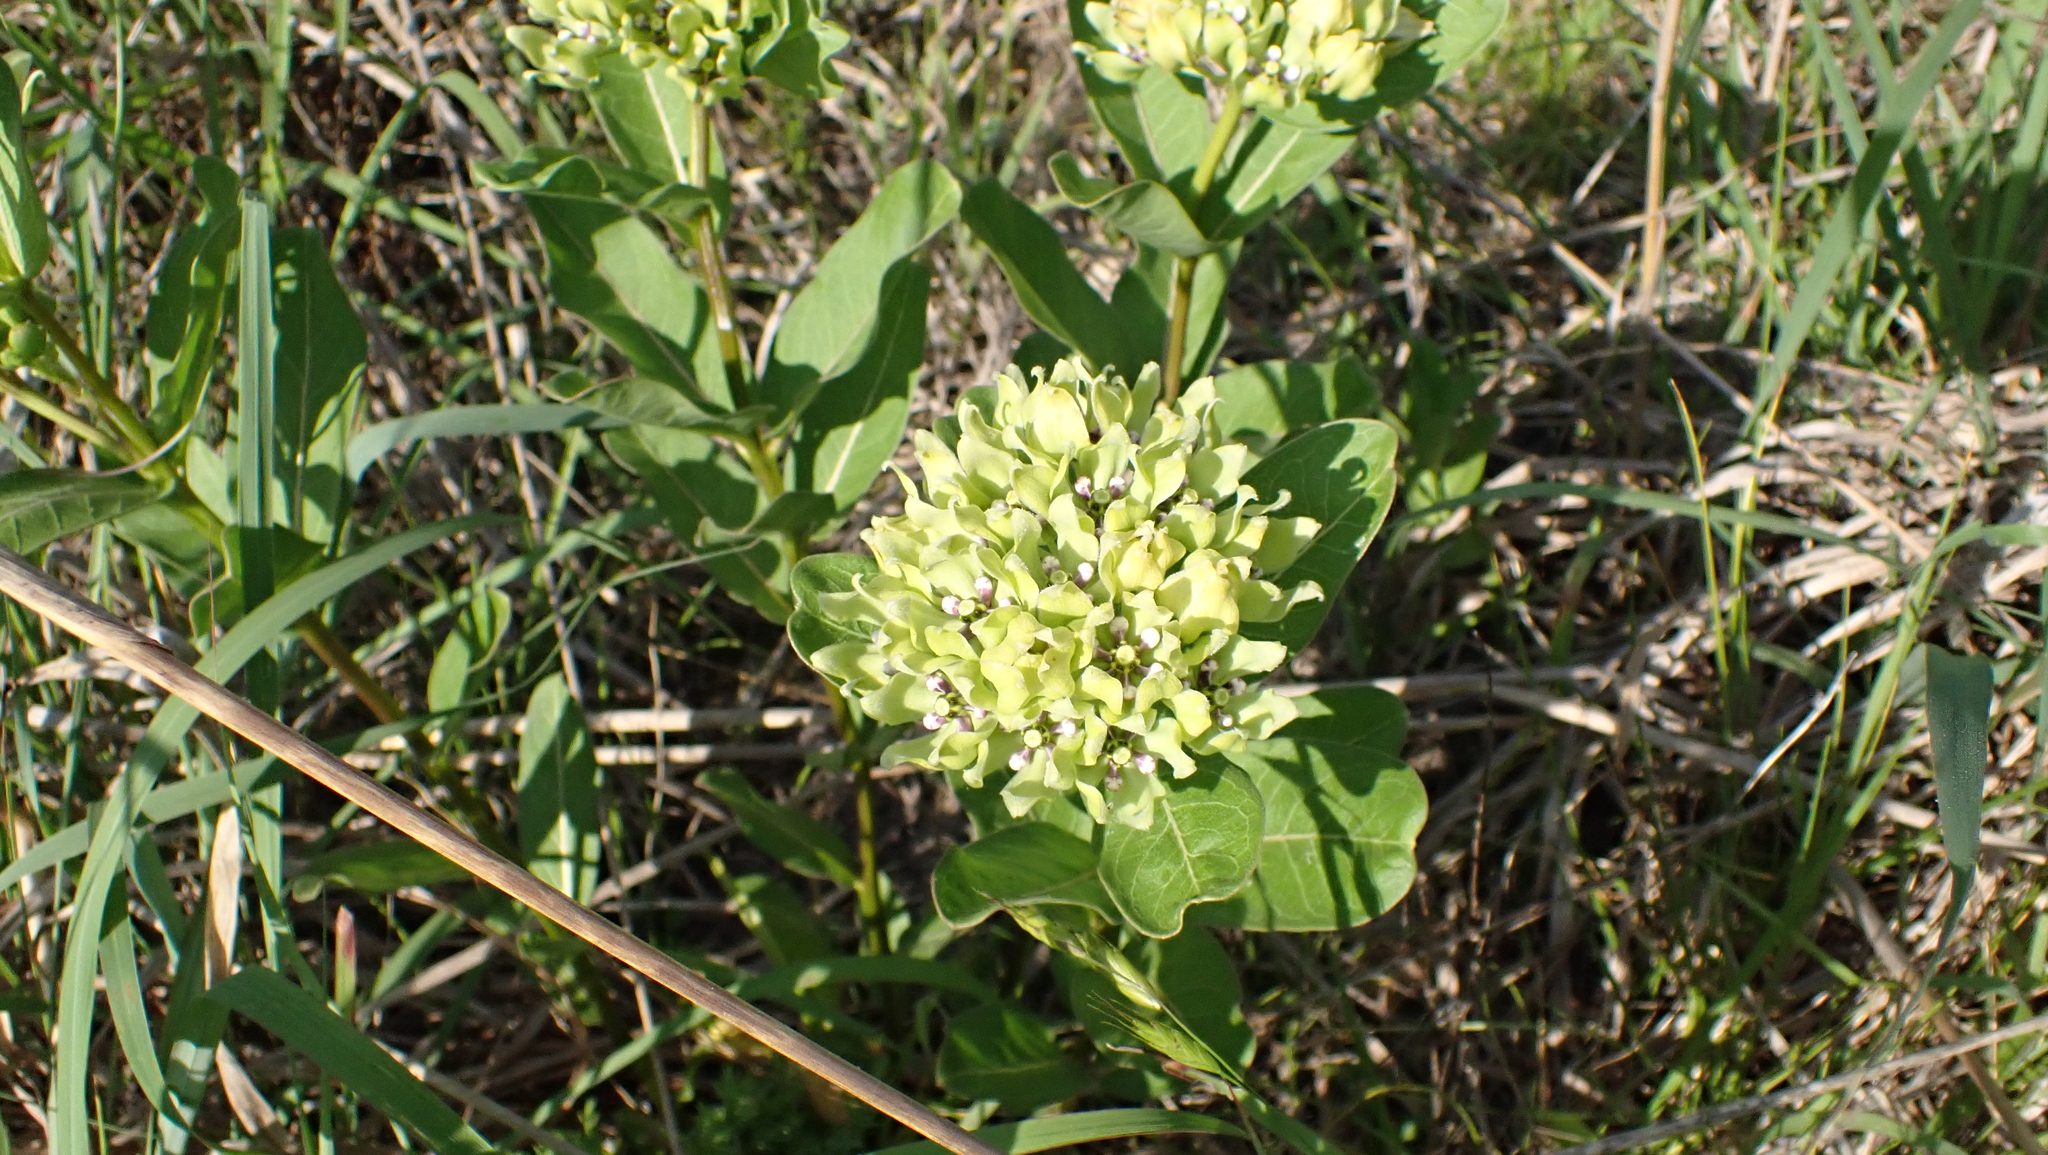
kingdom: Plantae
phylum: Tracheophyta
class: Magnoliopsida
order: Gentianales
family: Apocynaceae
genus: Asclepias
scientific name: Asclepias viridis
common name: Antelope-horns
